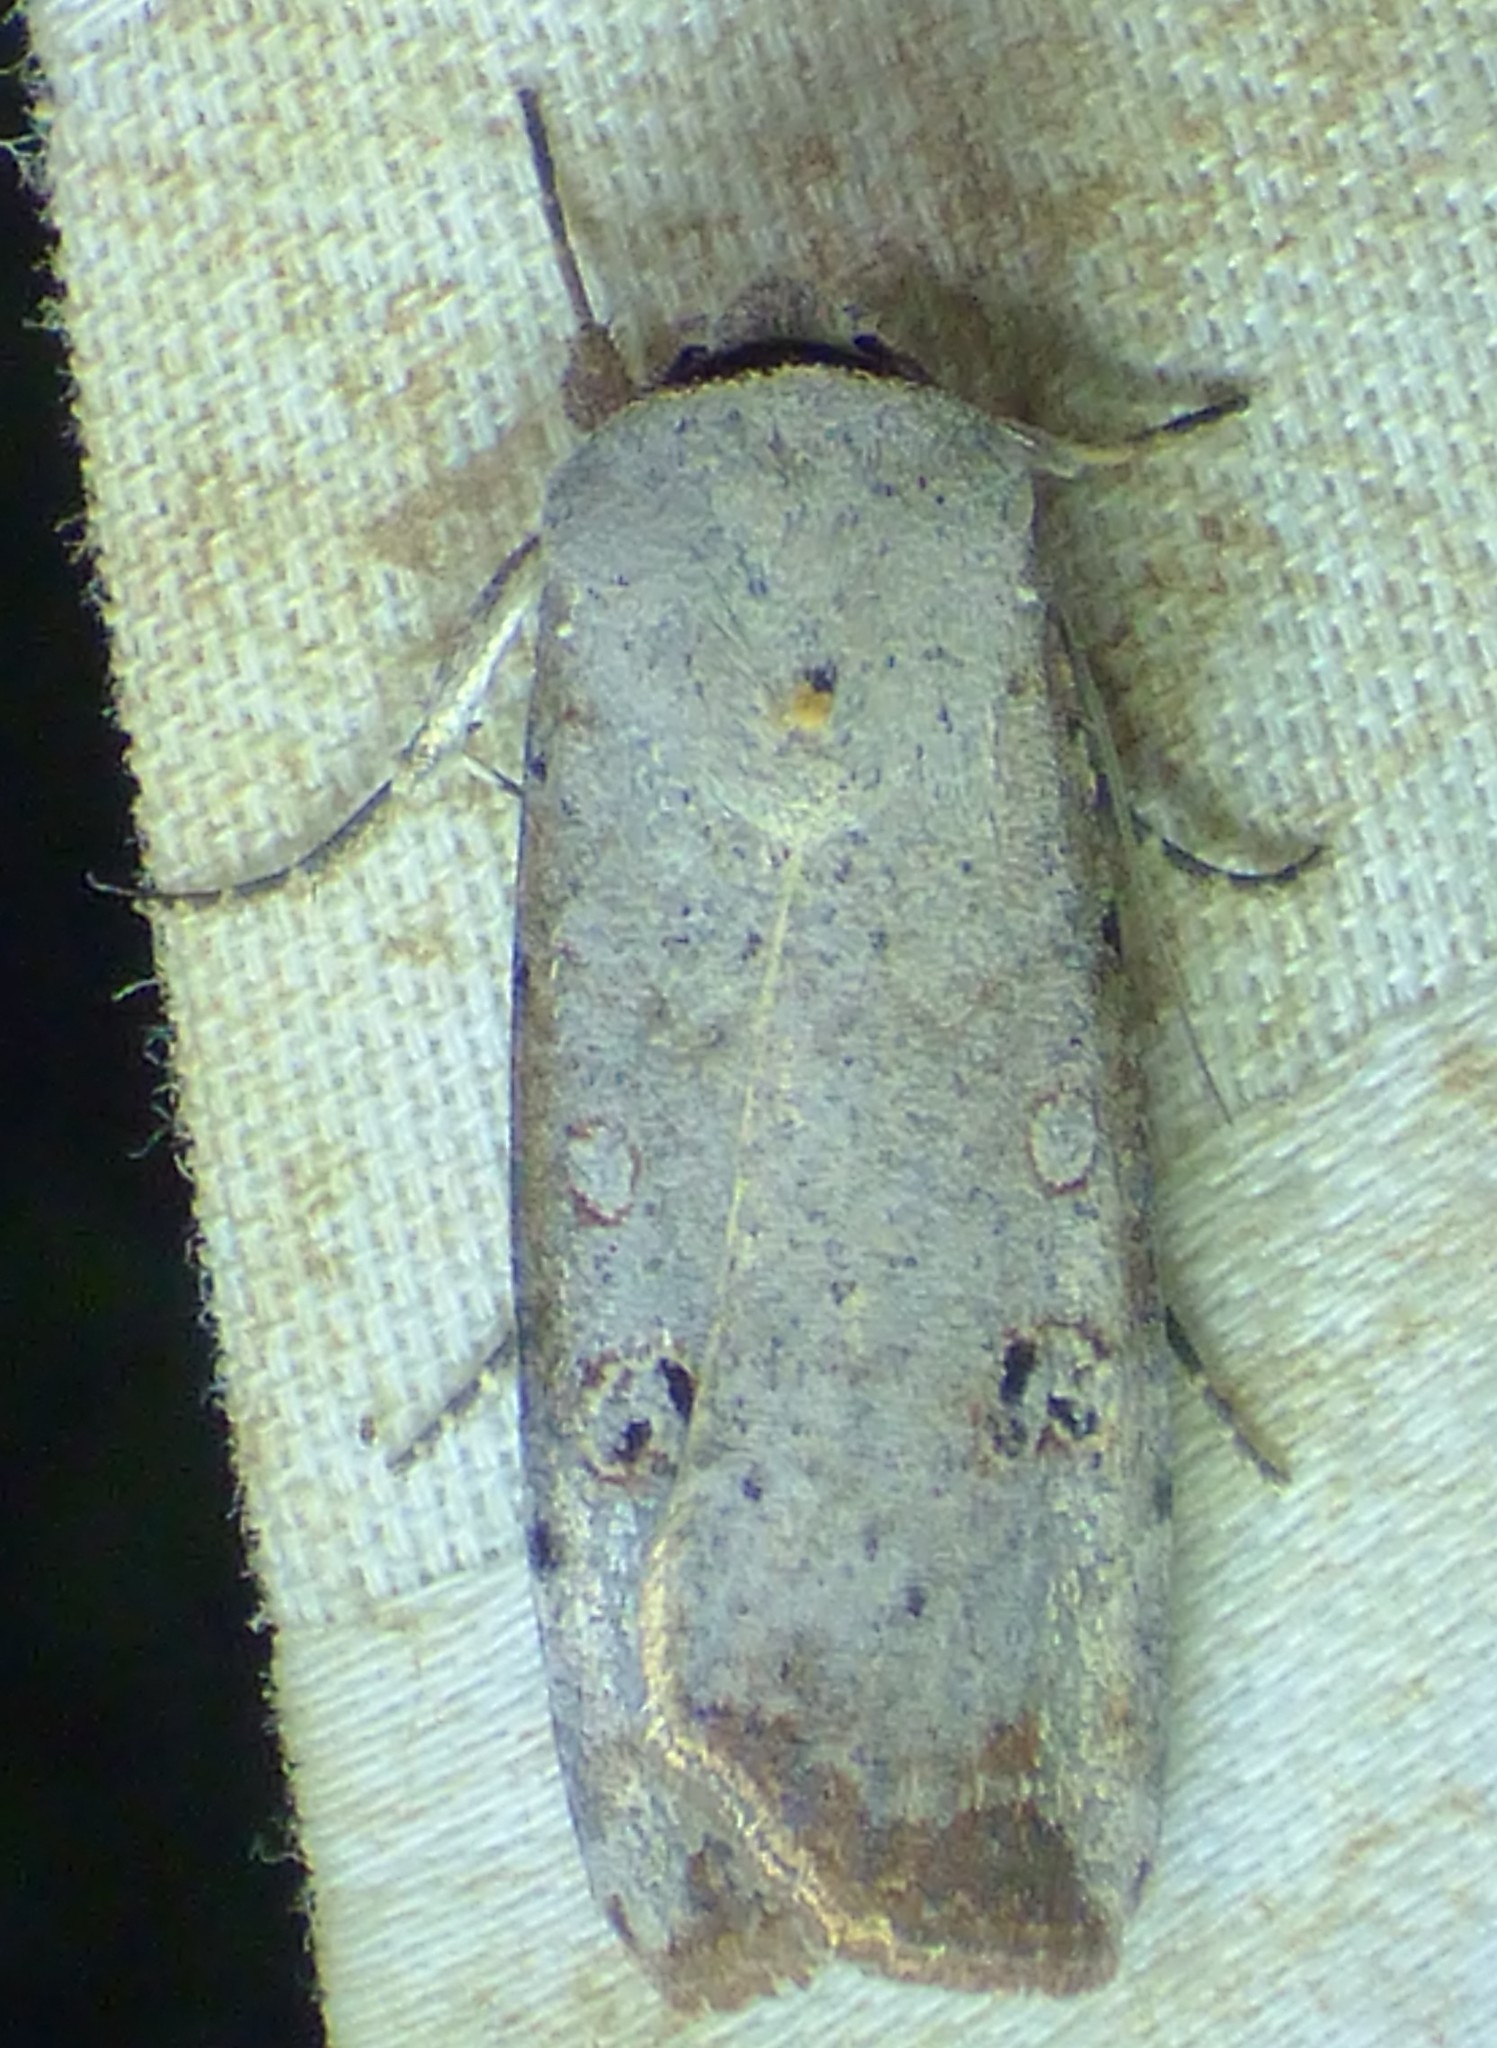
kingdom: Animalia
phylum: Arthropoda
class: Insecta
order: Lepidoptera
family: Noctuidae
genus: Anicla
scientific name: Anicla infecta
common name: Green cutworm
